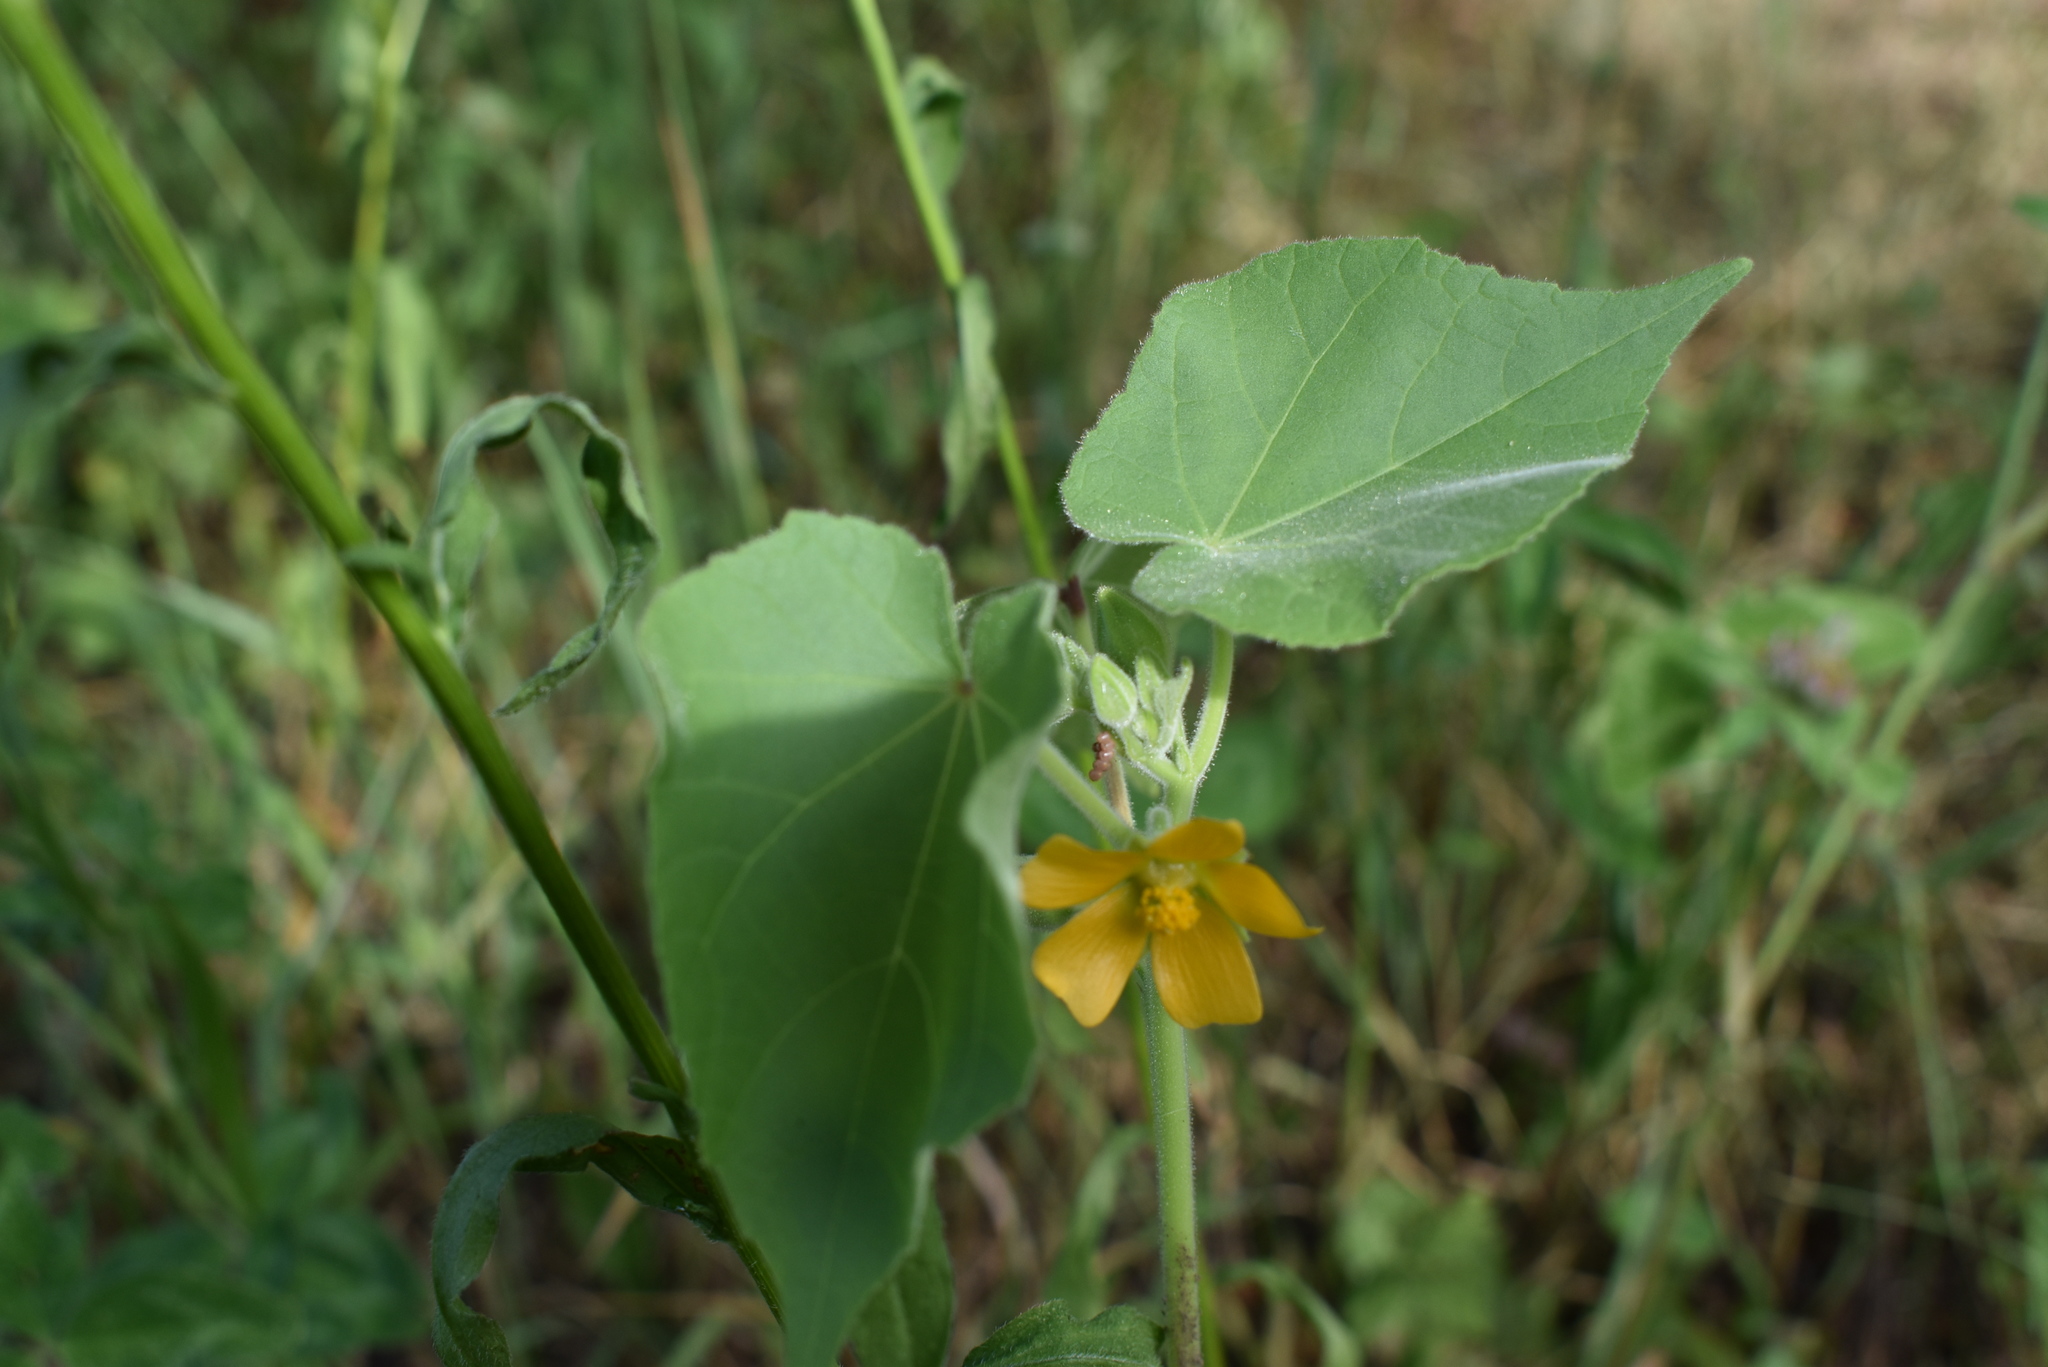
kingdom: Plantae
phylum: Tracheophyta
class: Magnoliopsida
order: Malvales
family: Malvaceae
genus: Abutilon
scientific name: Abutilon theophrasti
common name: Velvetleaf
